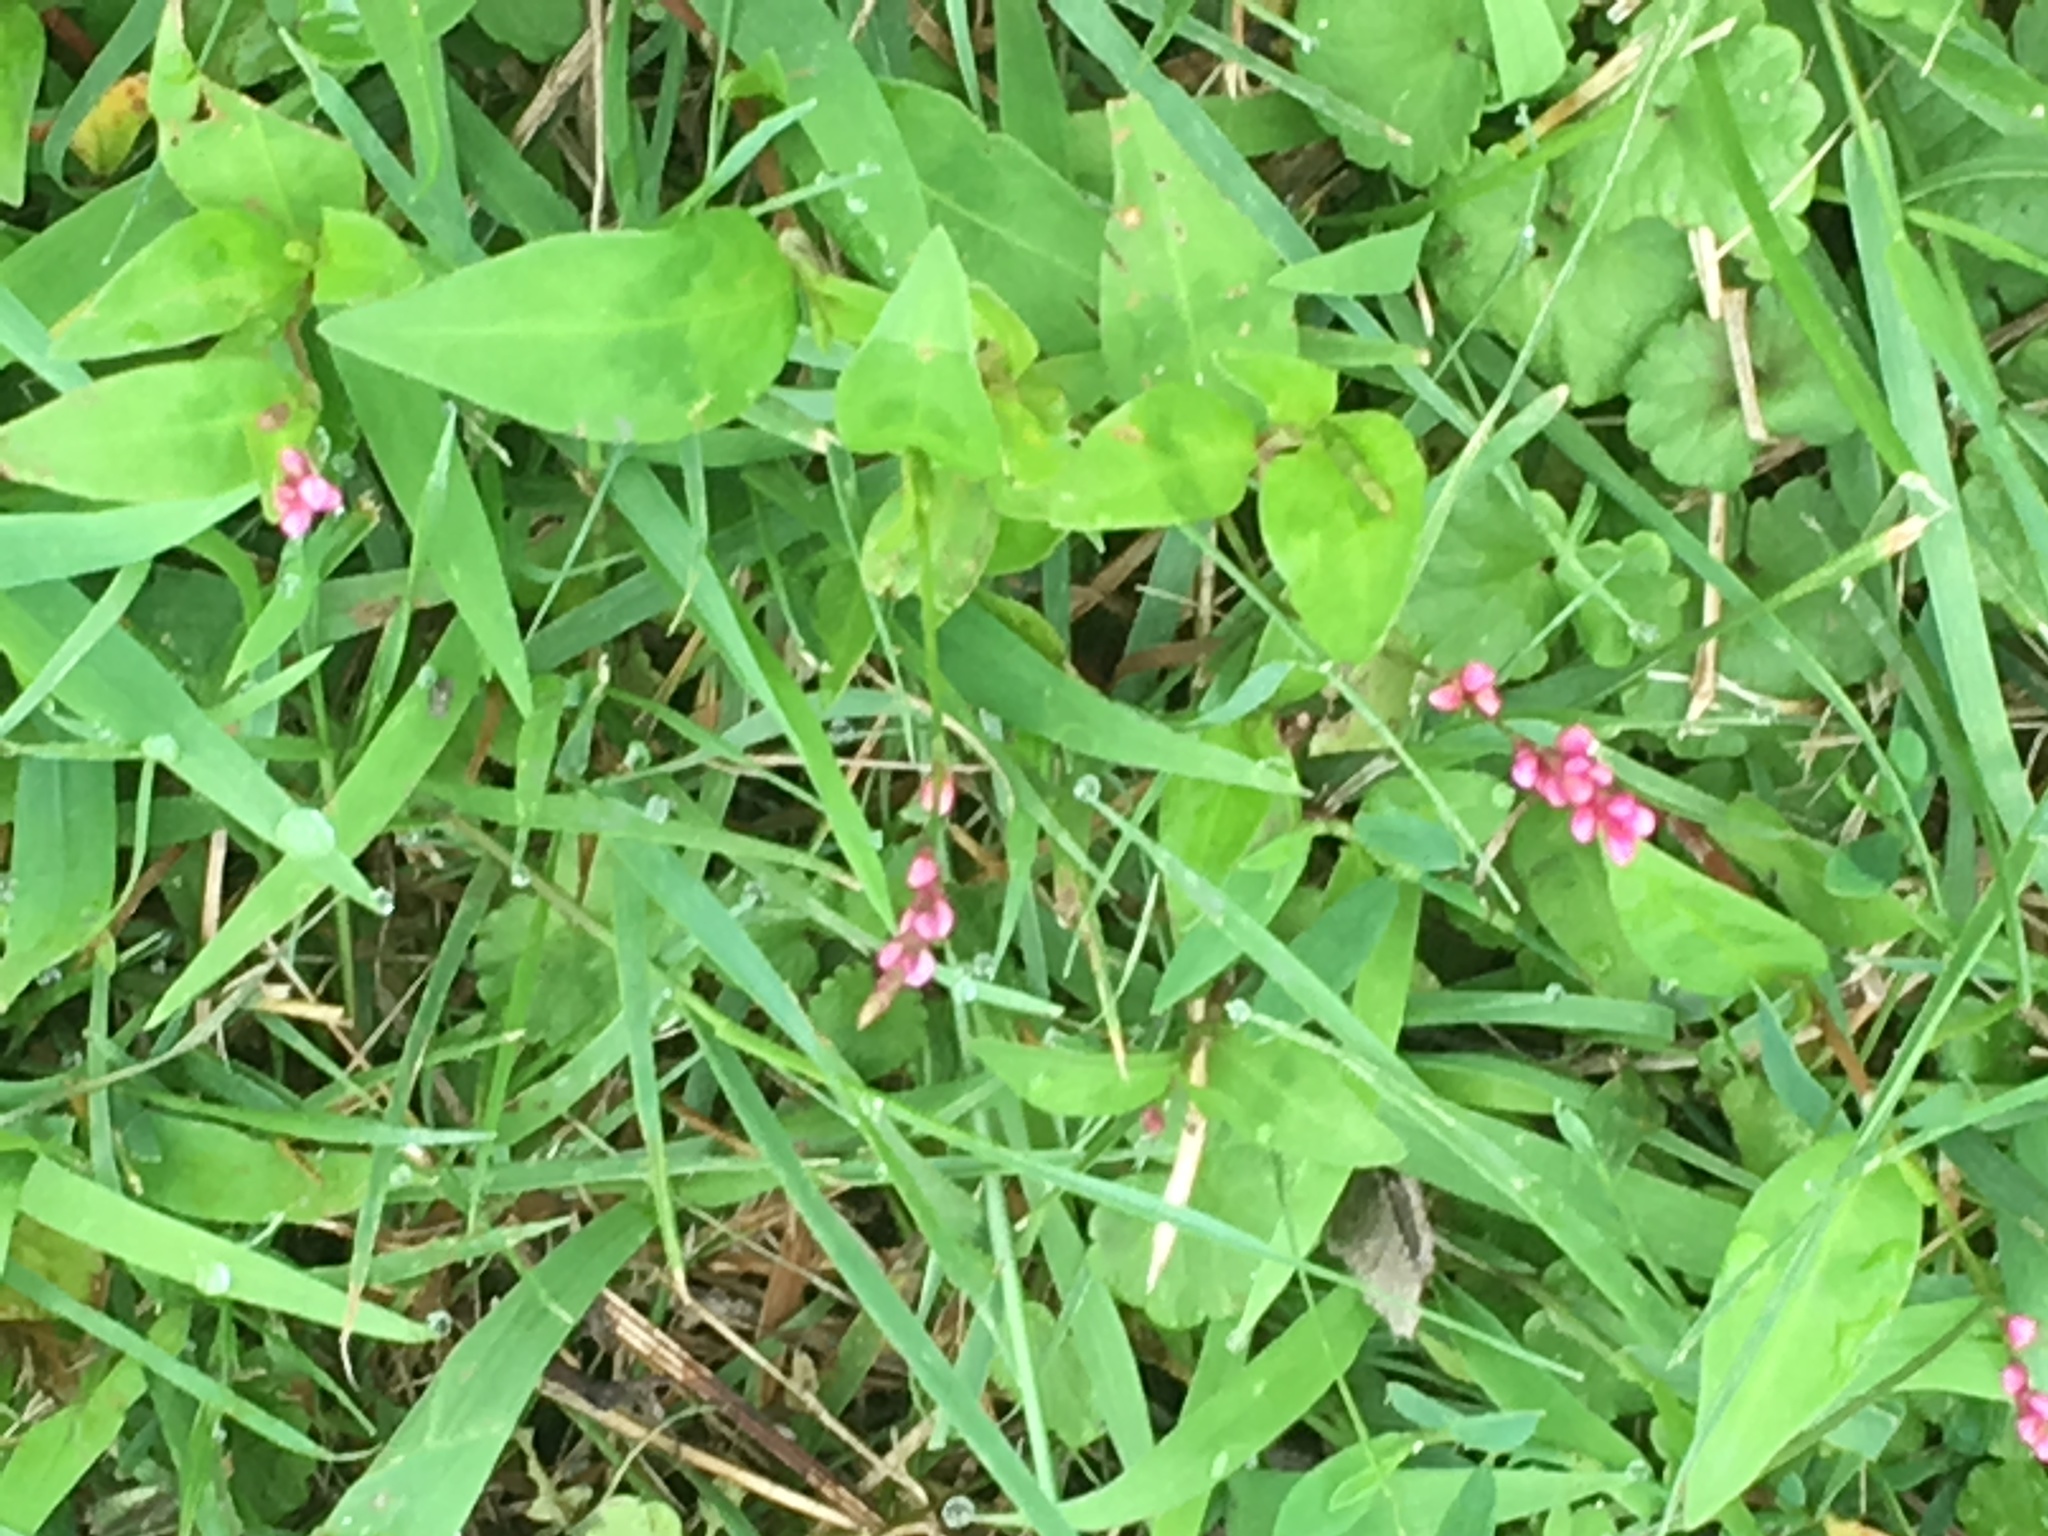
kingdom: Plantae
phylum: Tracheophyta
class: Magnoliopsida
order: Caryophyllales
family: Polygonaceae
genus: Persicaria
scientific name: Persicaria longiseta
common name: Bristly lady's-thumb
